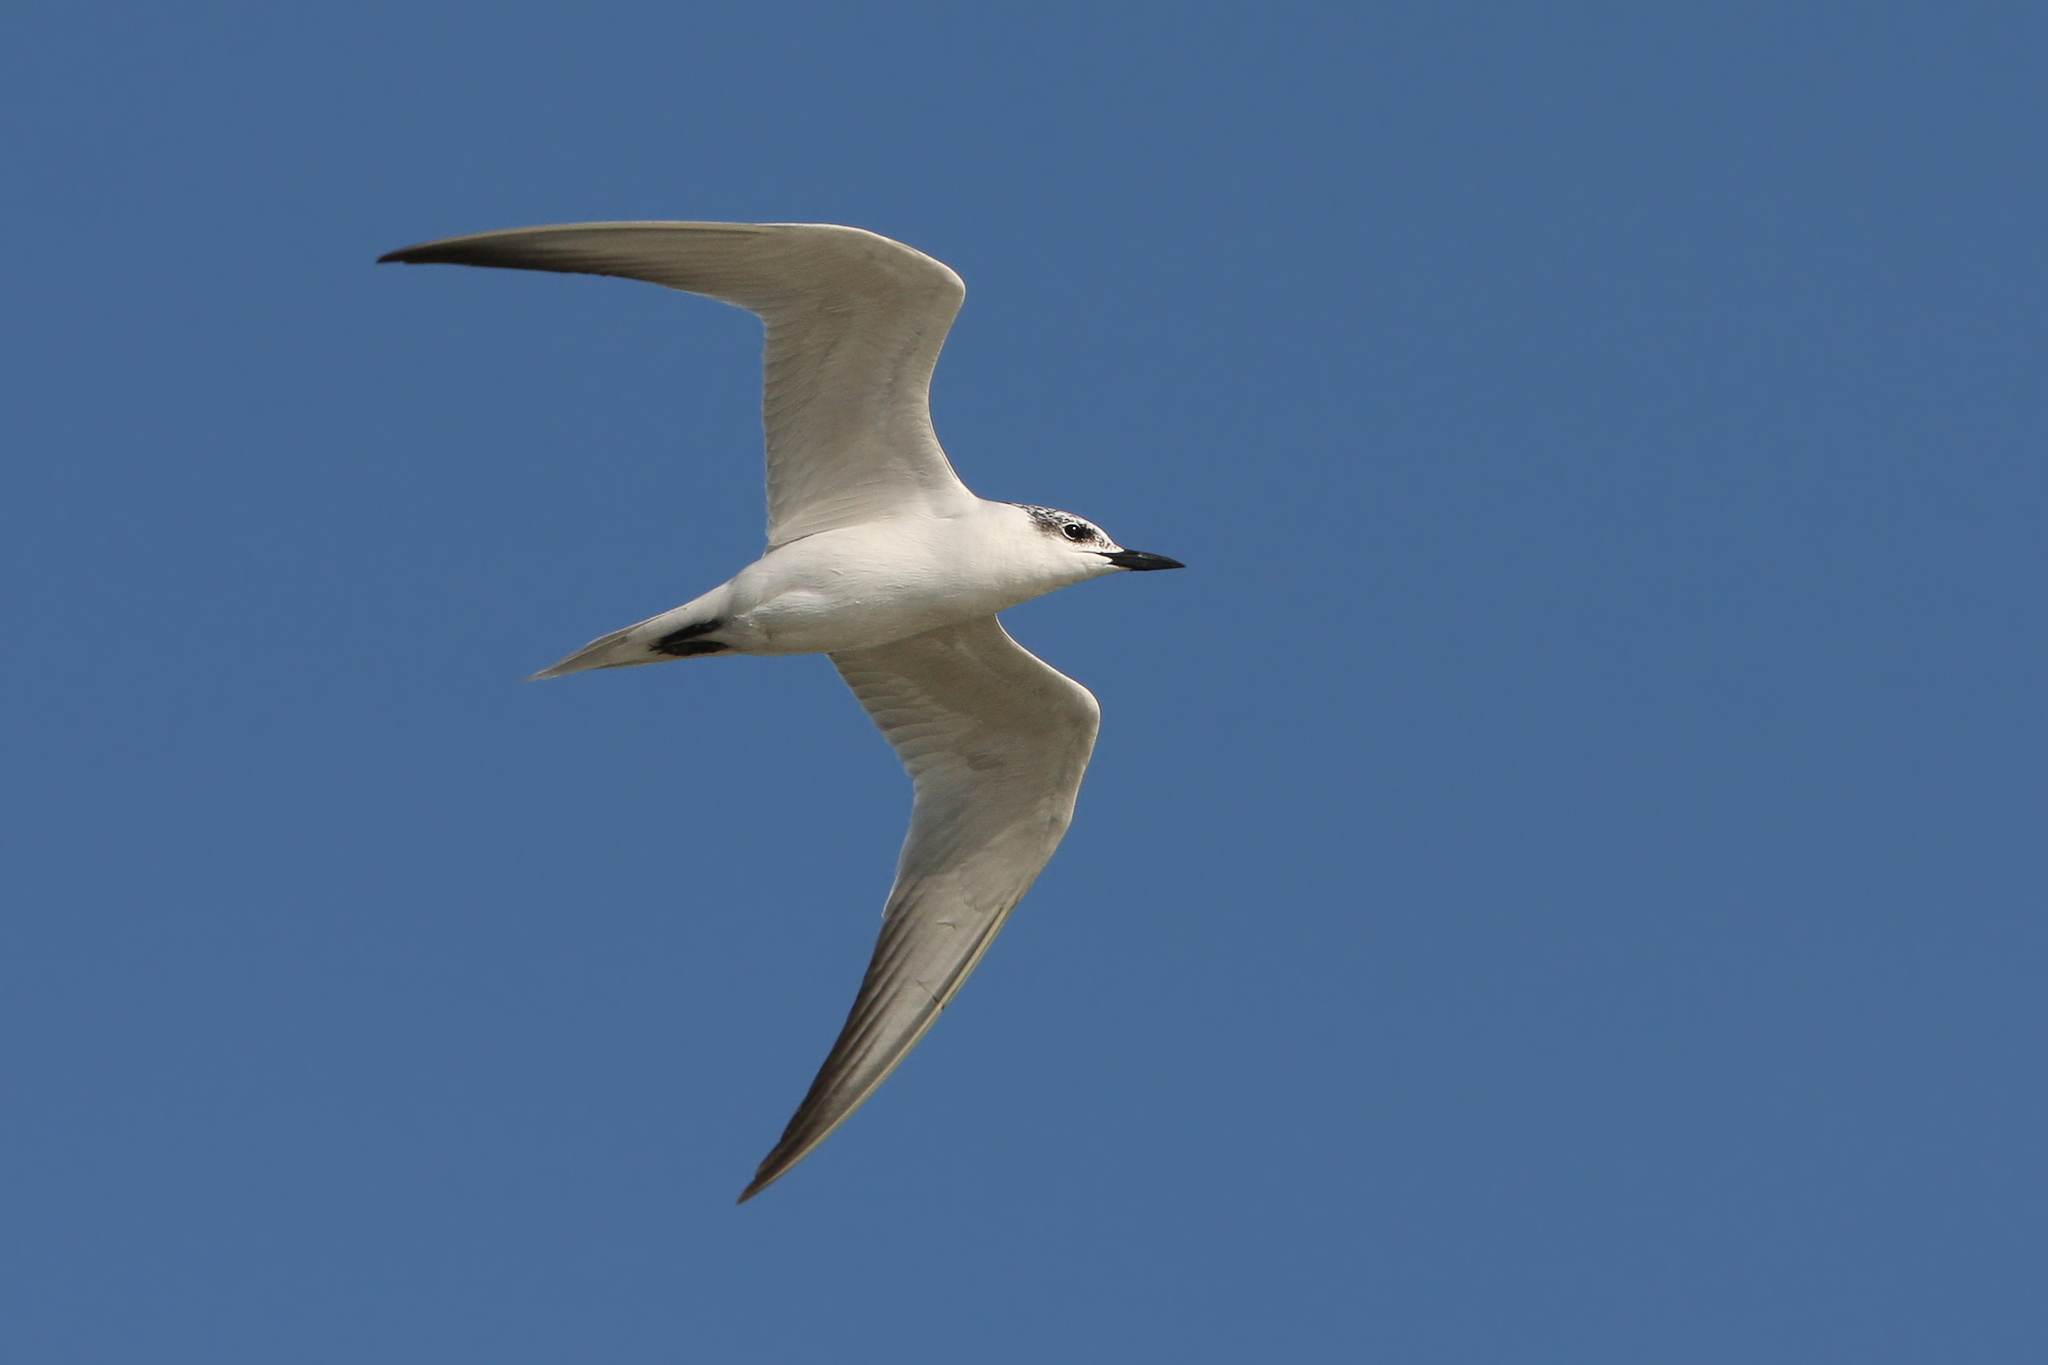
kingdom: Animalia
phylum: Chordata
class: Aves
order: Charadriiformes
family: Laridae
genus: Gelochelidon
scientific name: Gelochelidon nilotica
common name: Gull-billed tern
